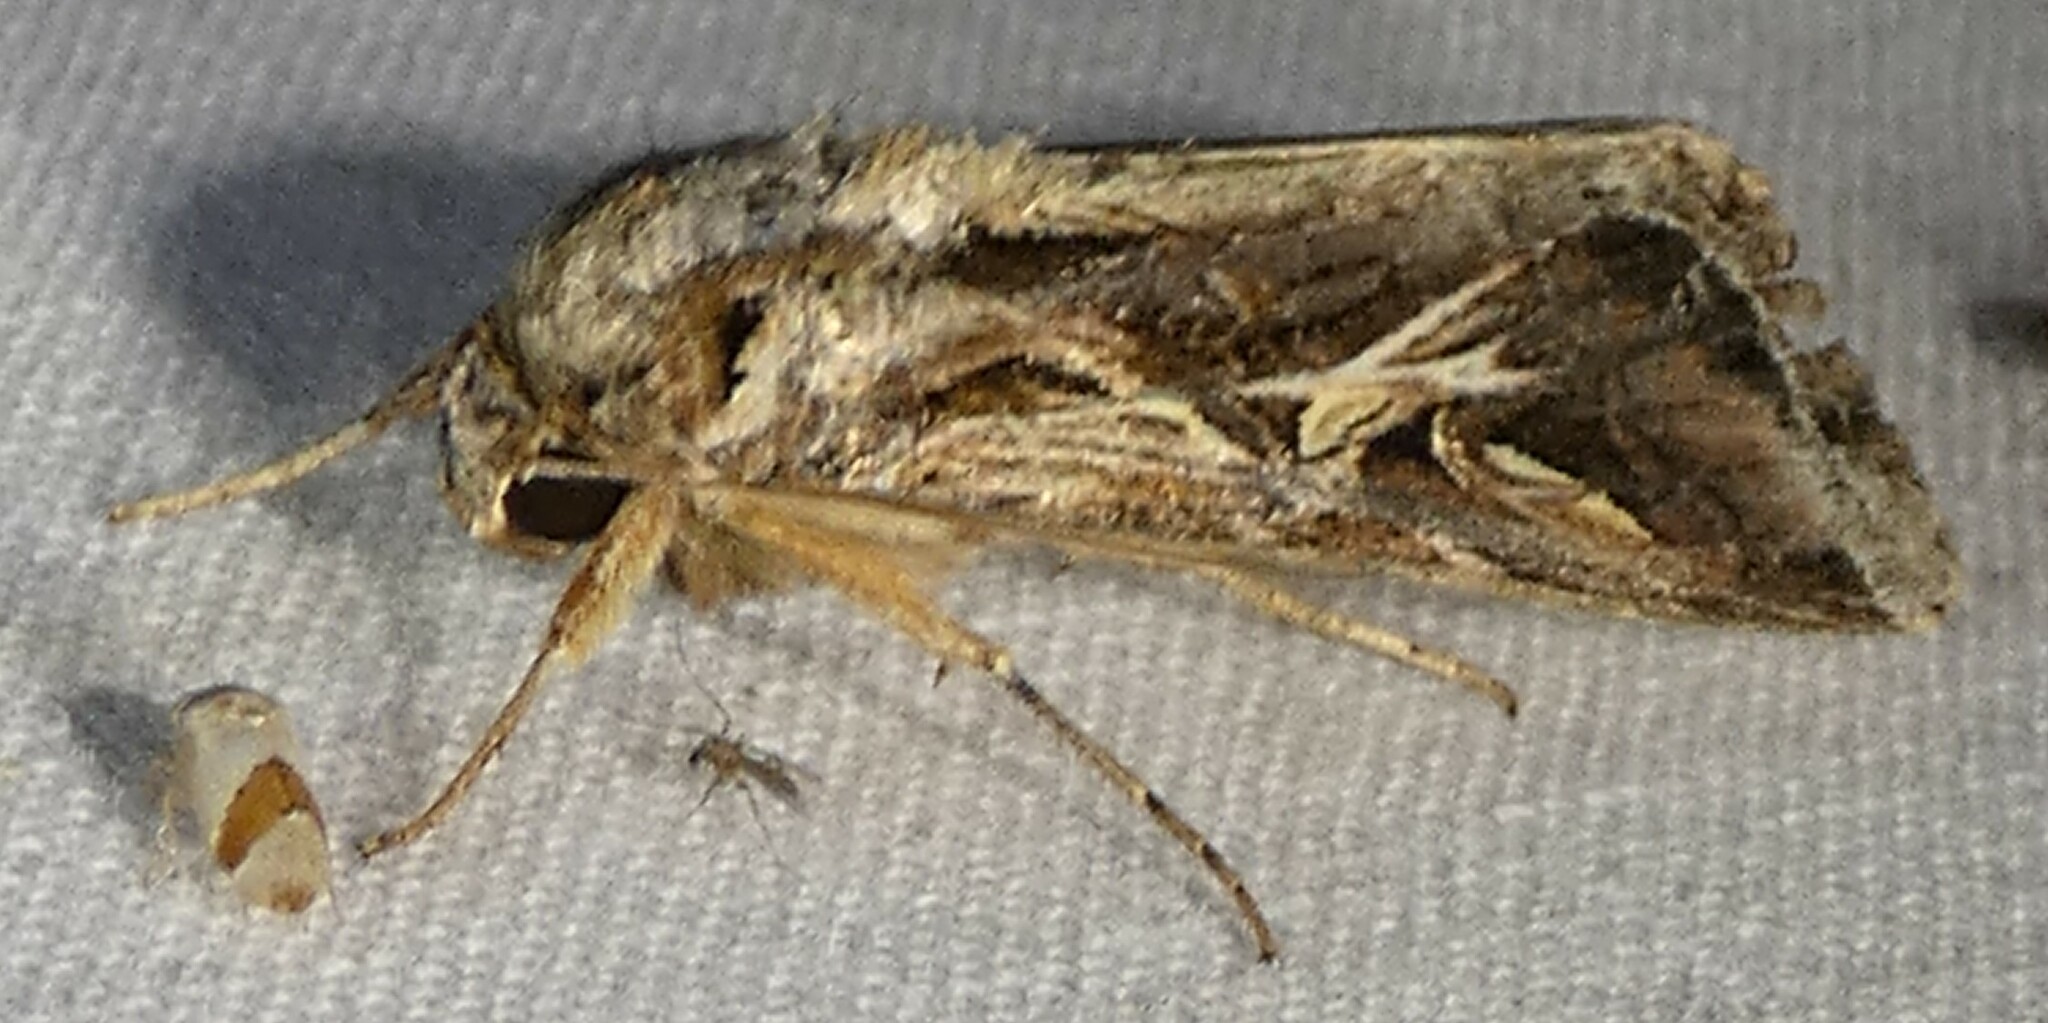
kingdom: Animalia
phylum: Arthropoda
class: Insecta
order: Lepidoptera
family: Noctuidae
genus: Spodoptera
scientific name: Spodoptera dolichos
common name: Sweetpotato armyworm
